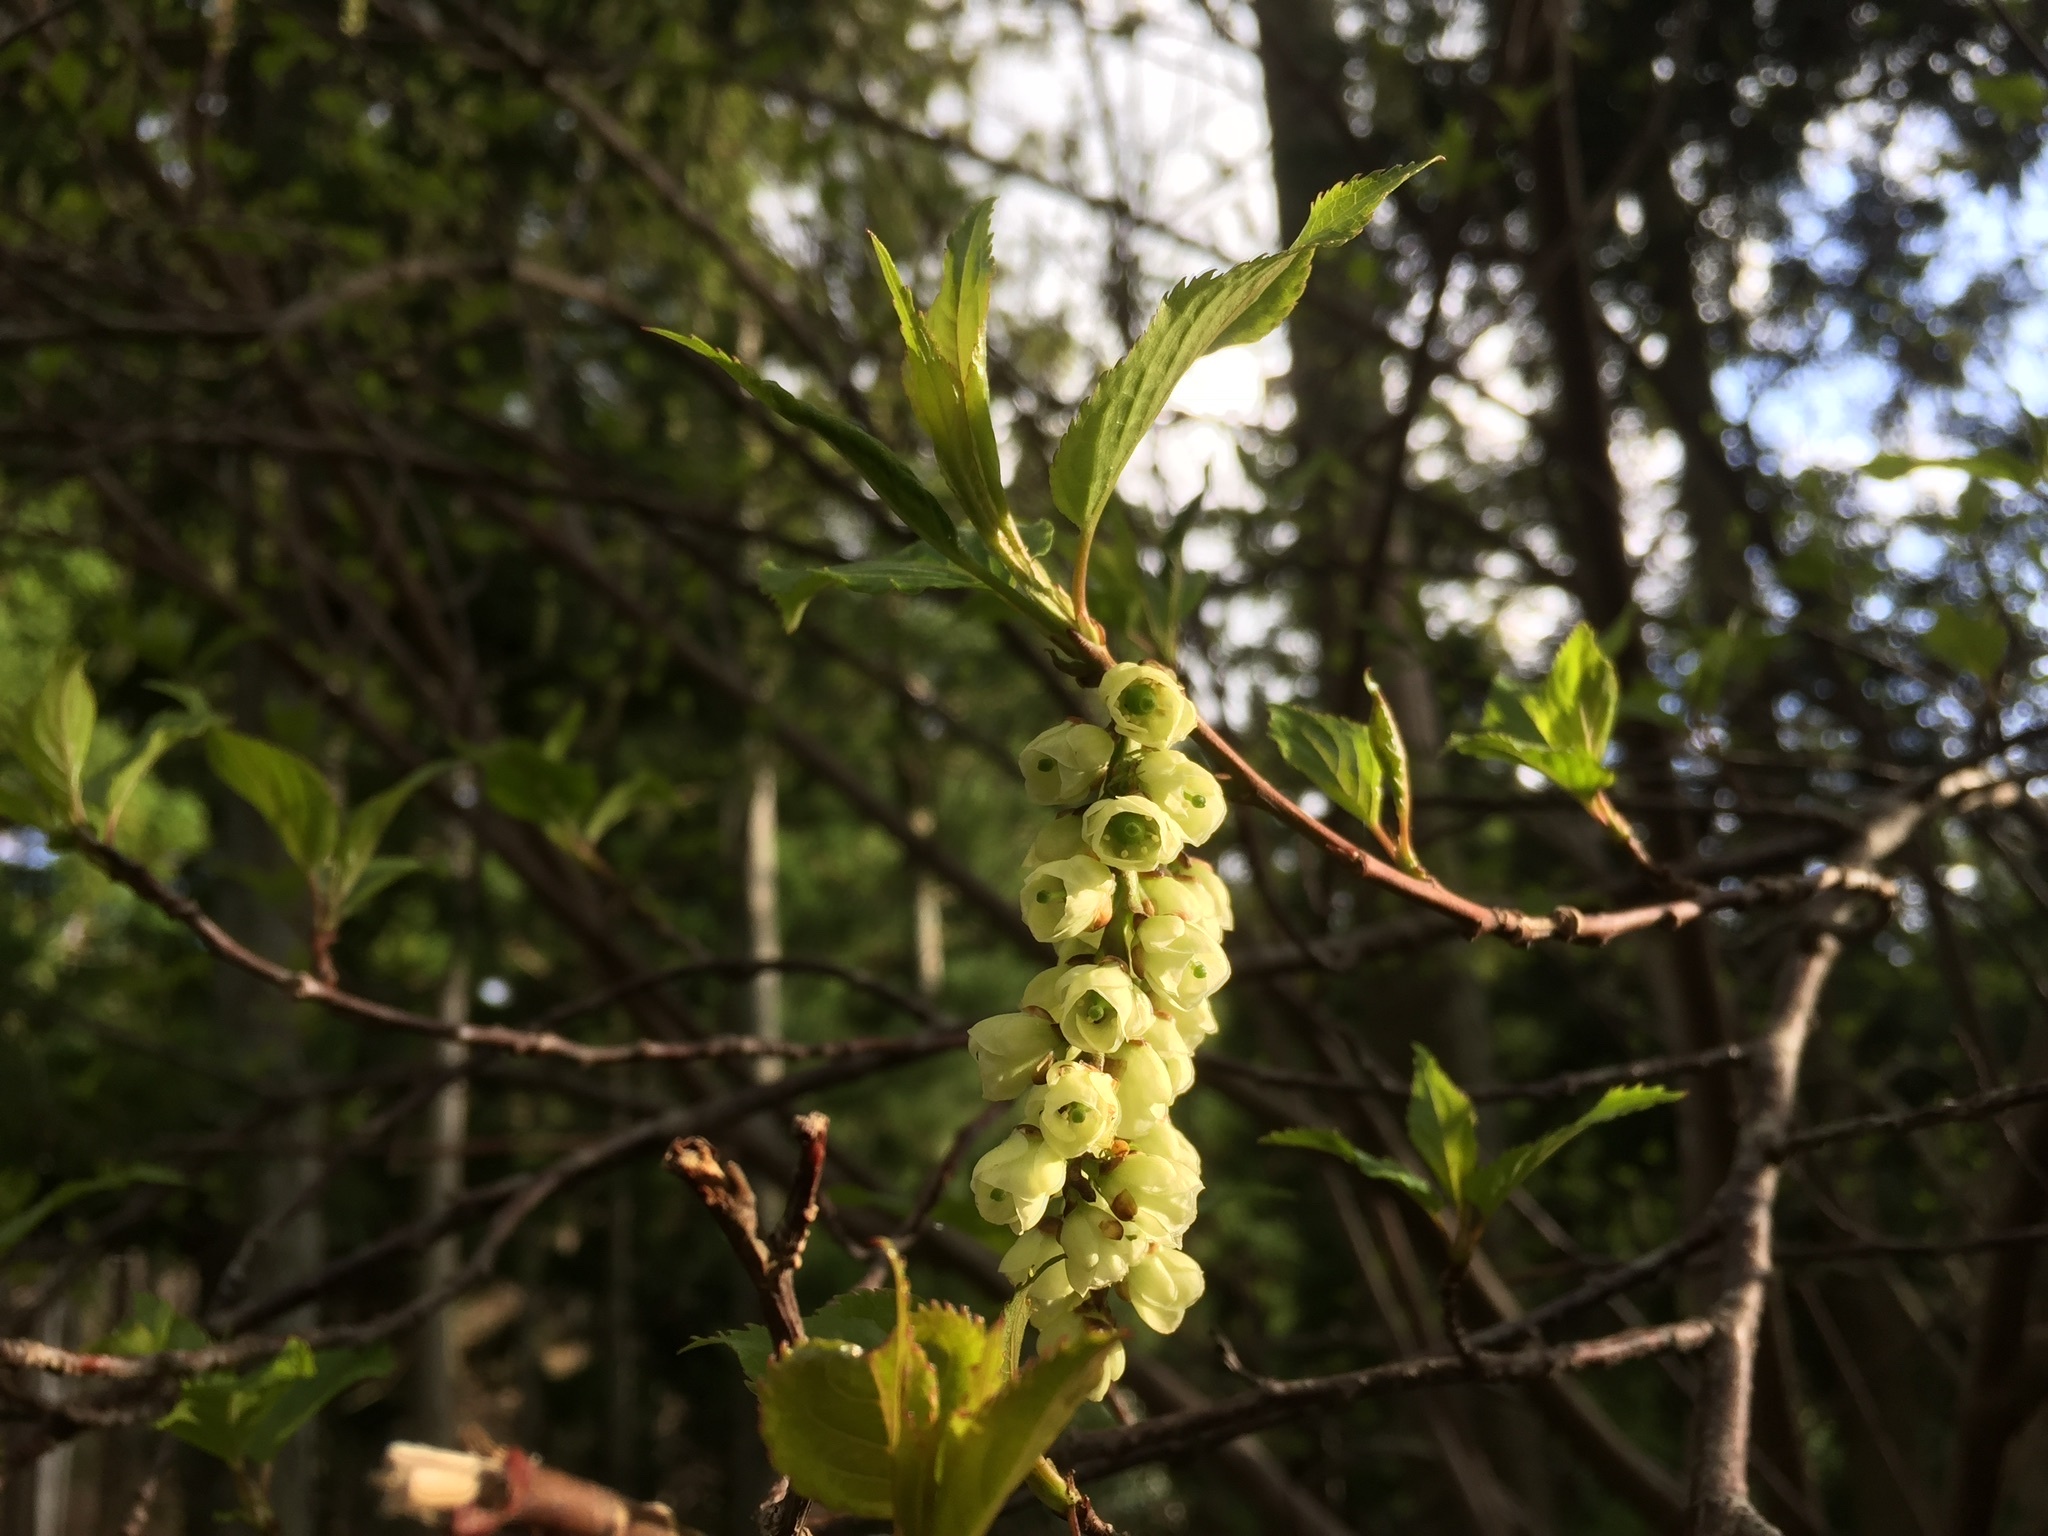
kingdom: Plantae
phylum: Tracheophyta
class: Magnoliopsida
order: Crossosomatales
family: Stachyuraceae
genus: Stachyurus
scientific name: Stachyurus praecox
